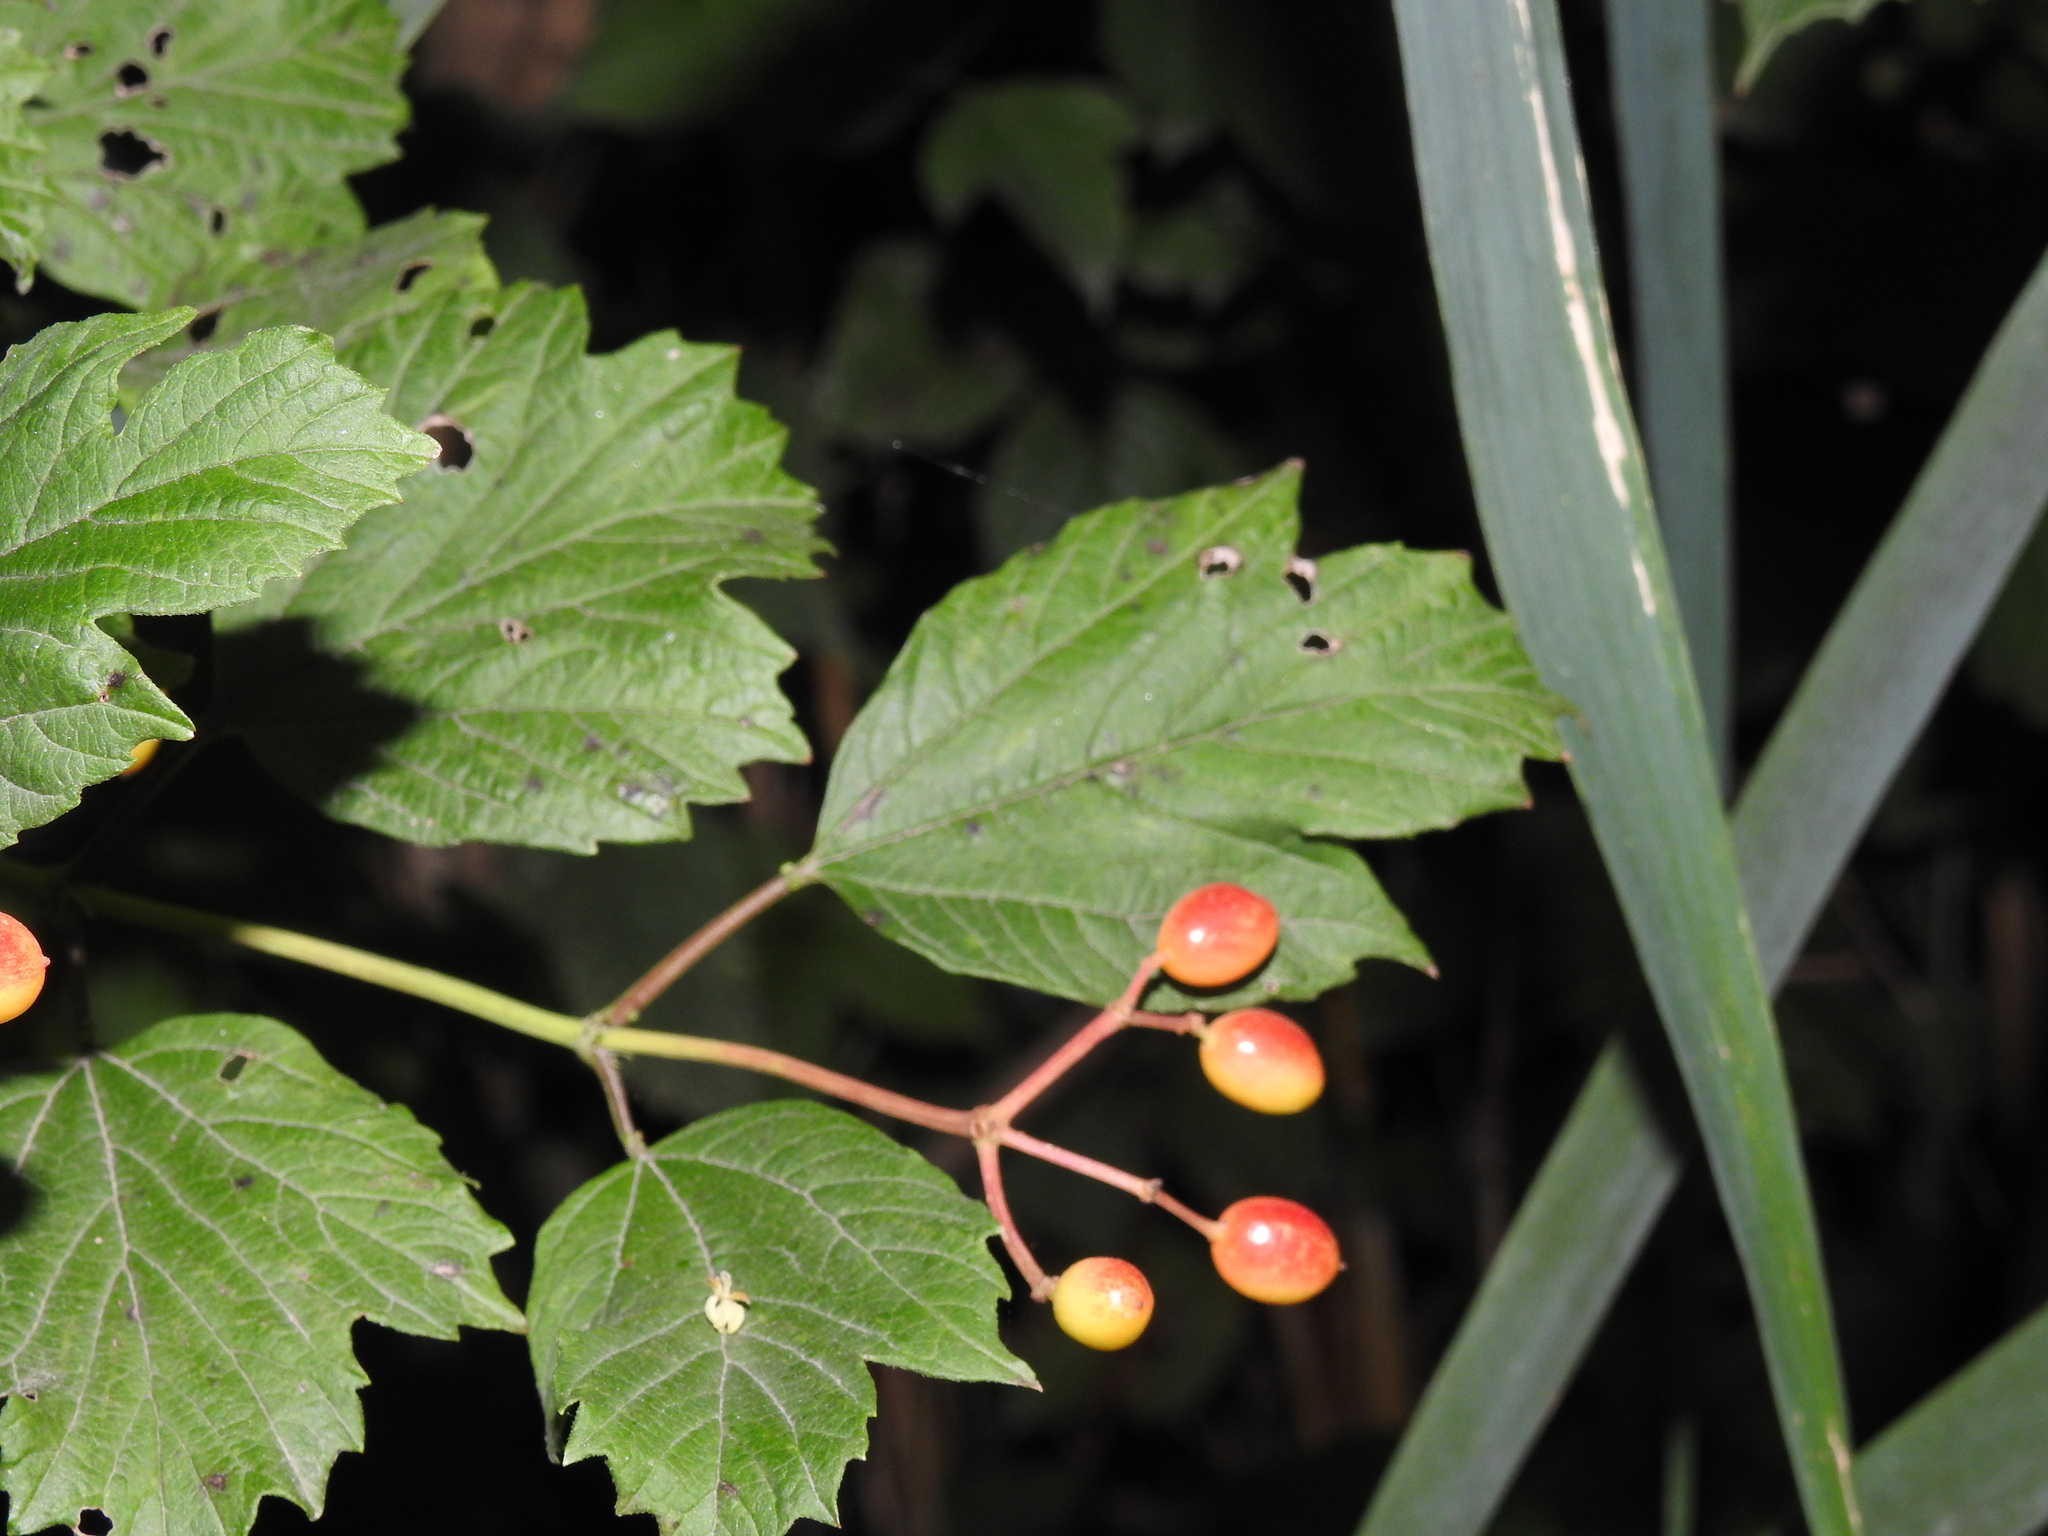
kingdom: Plantae
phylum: Tracheophyta
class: Magnoliopsida
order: Dipsacales
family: Viburnaceae
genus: Viburnum
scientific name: Viburnum opulus
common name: Guelder-rose
